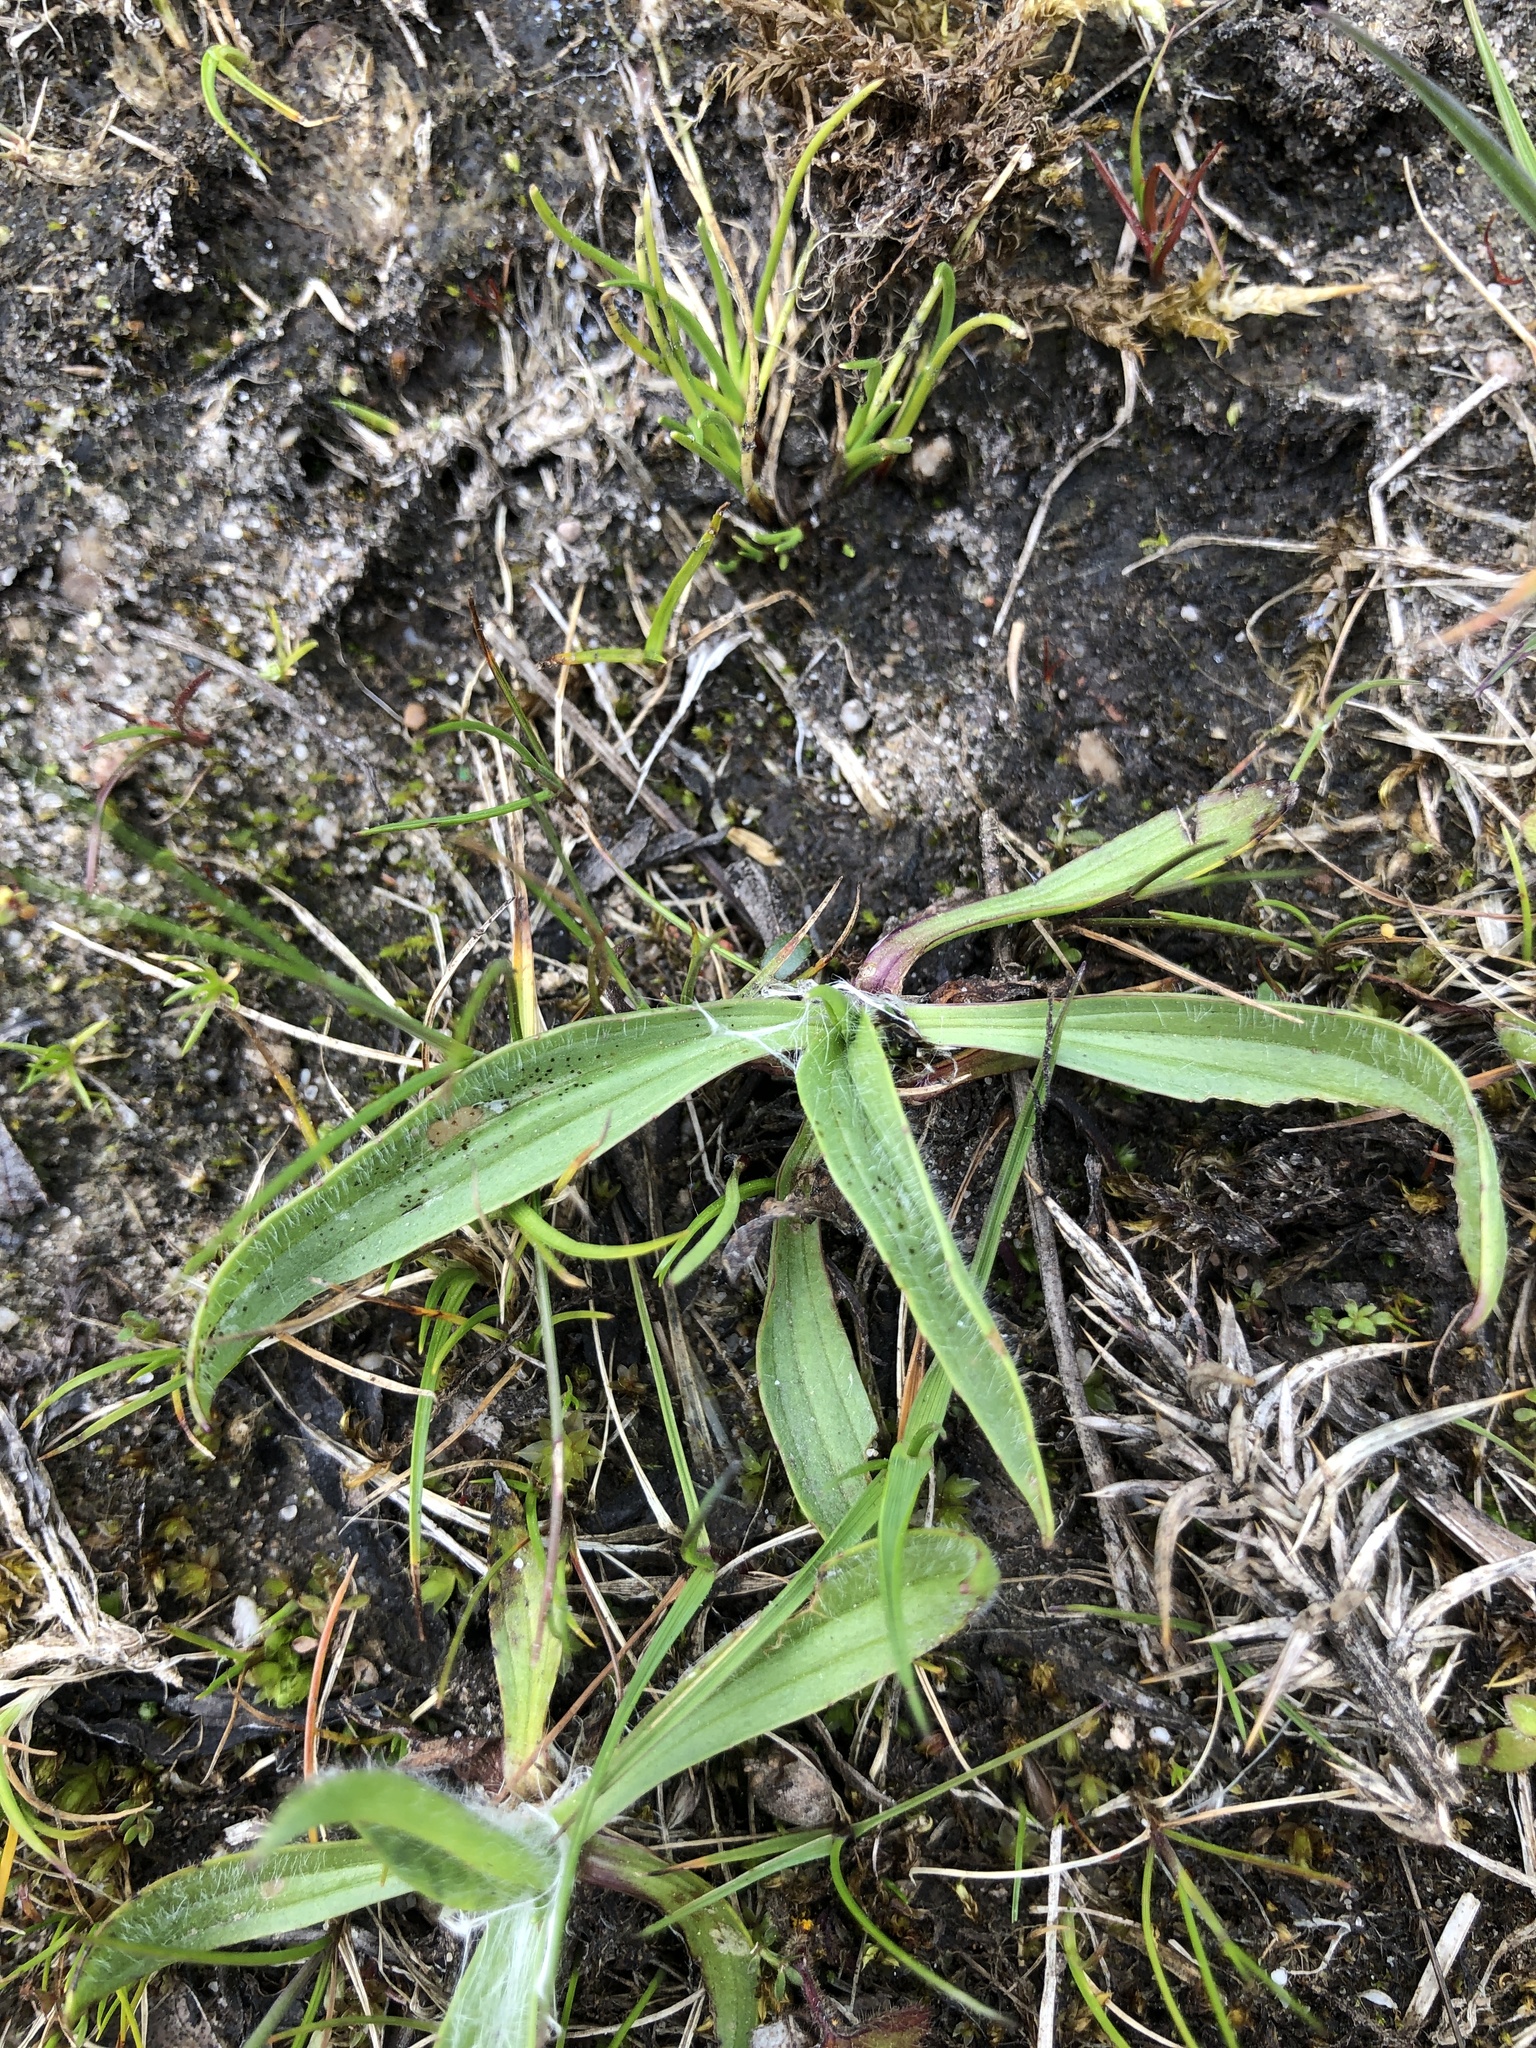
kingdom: Plantae
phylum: Tracheophyta
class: Magnoliopsida
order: Lamiales
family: Plantaginaceae
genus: Plantago
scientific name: Plantago lanceolata
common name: Ribwort plantain
